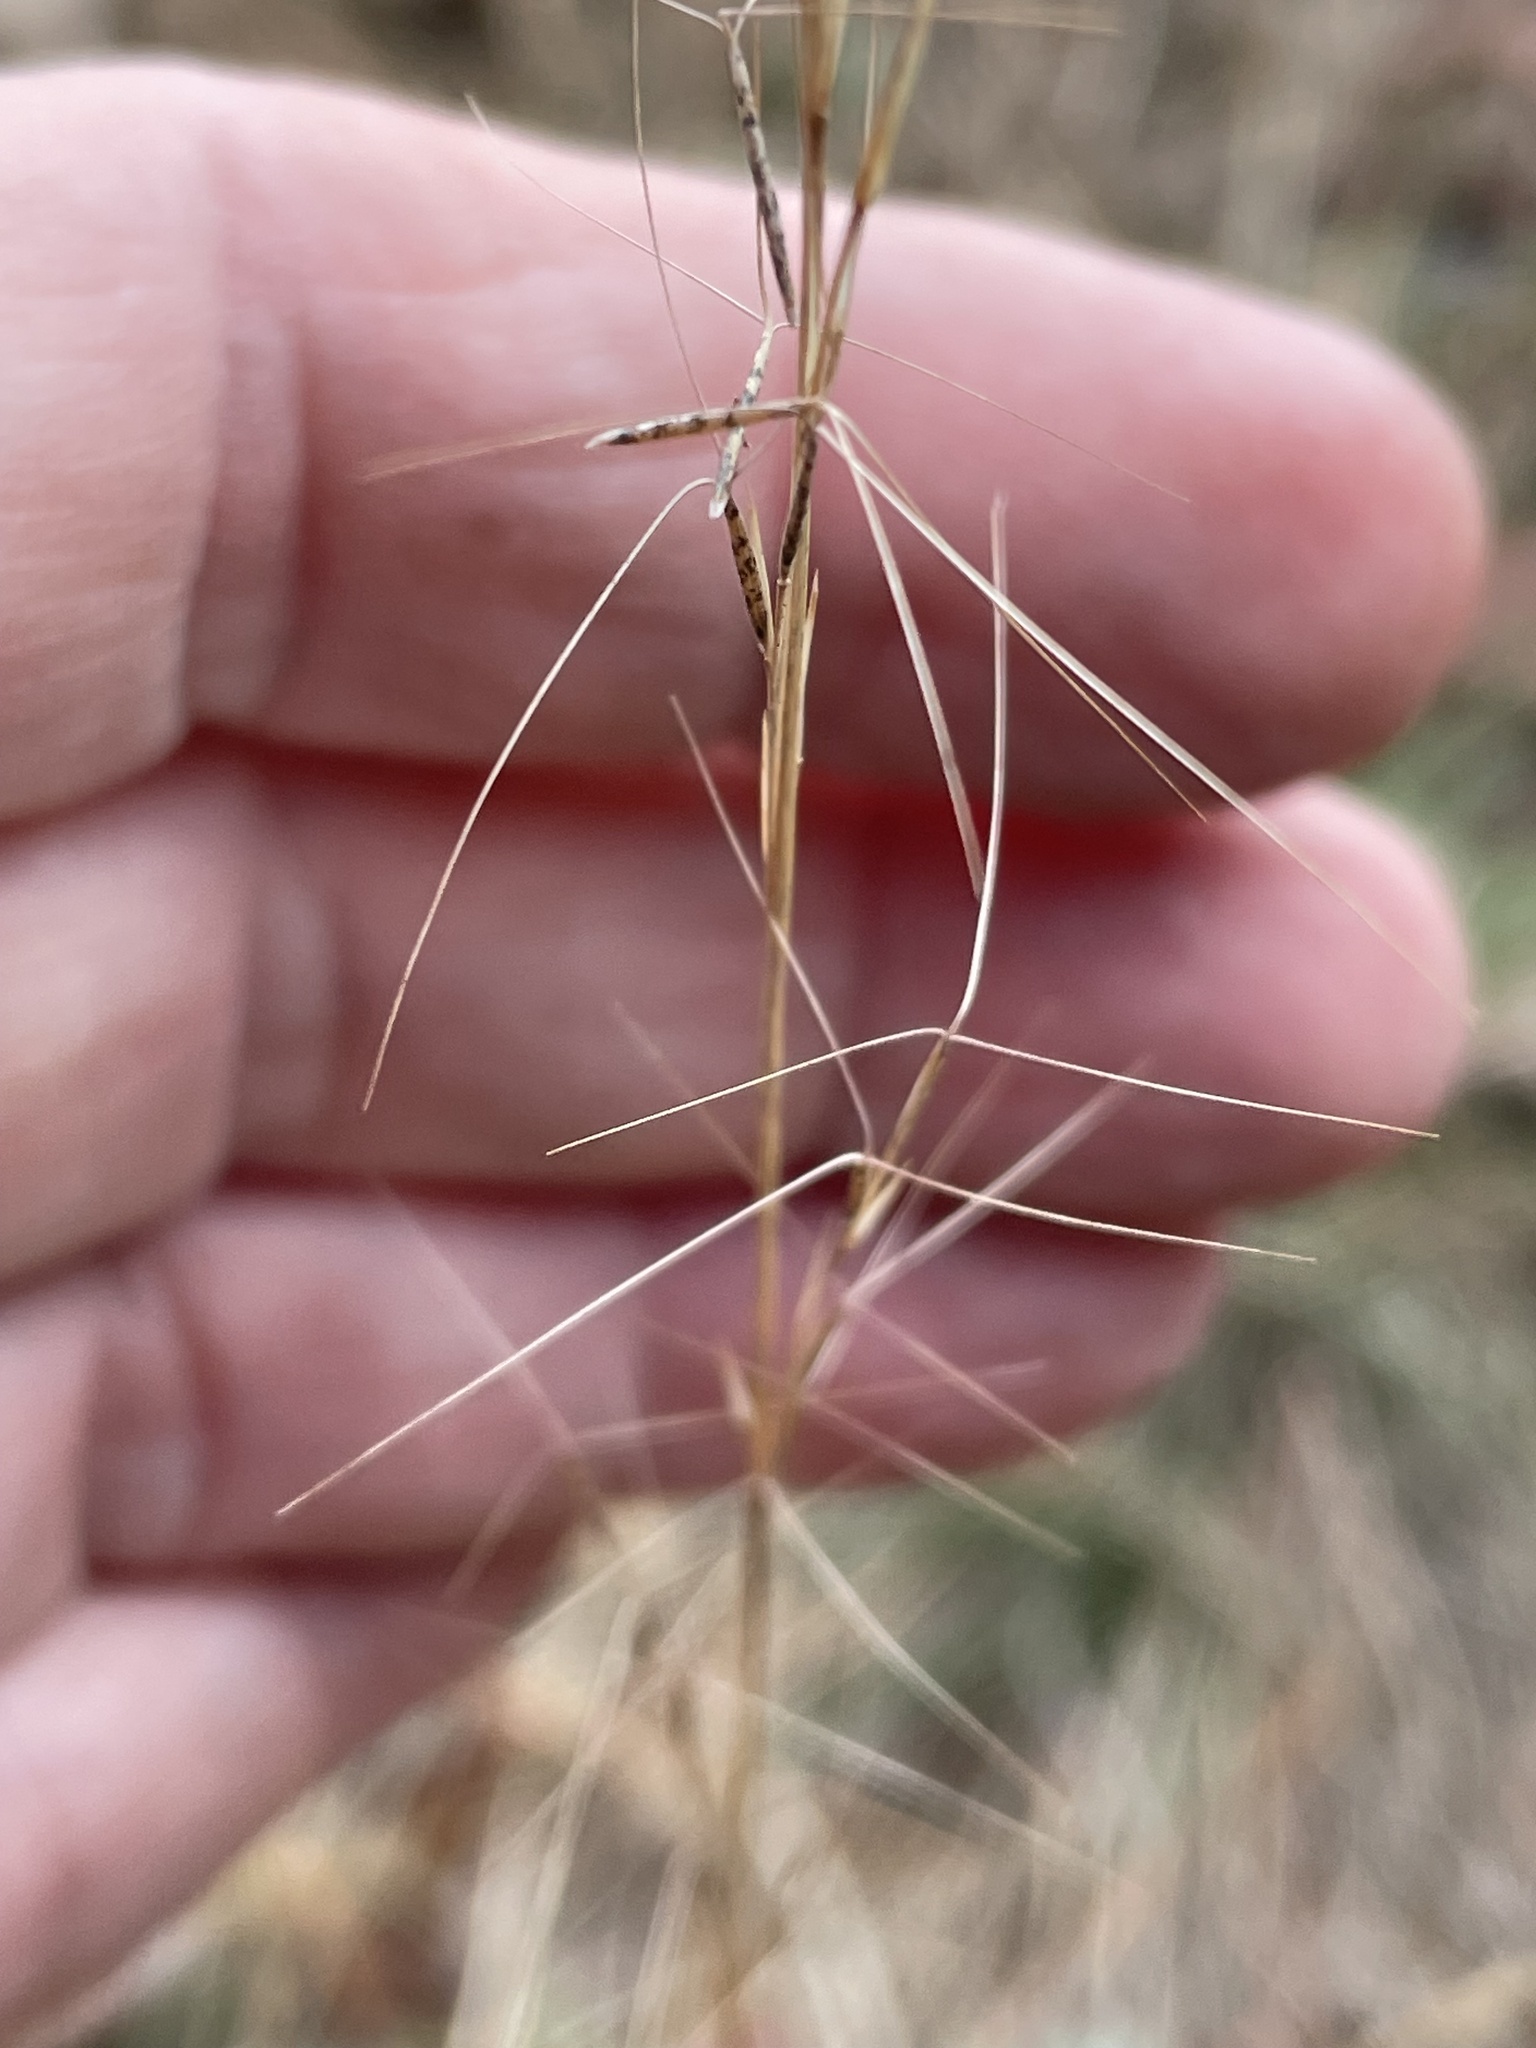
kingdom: Plantae
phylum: Tracheophyta
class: Liliopsida
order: Poales
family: Poaceae
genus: Aristida
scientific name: Aristida purpurascens
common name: Arrow-feather
